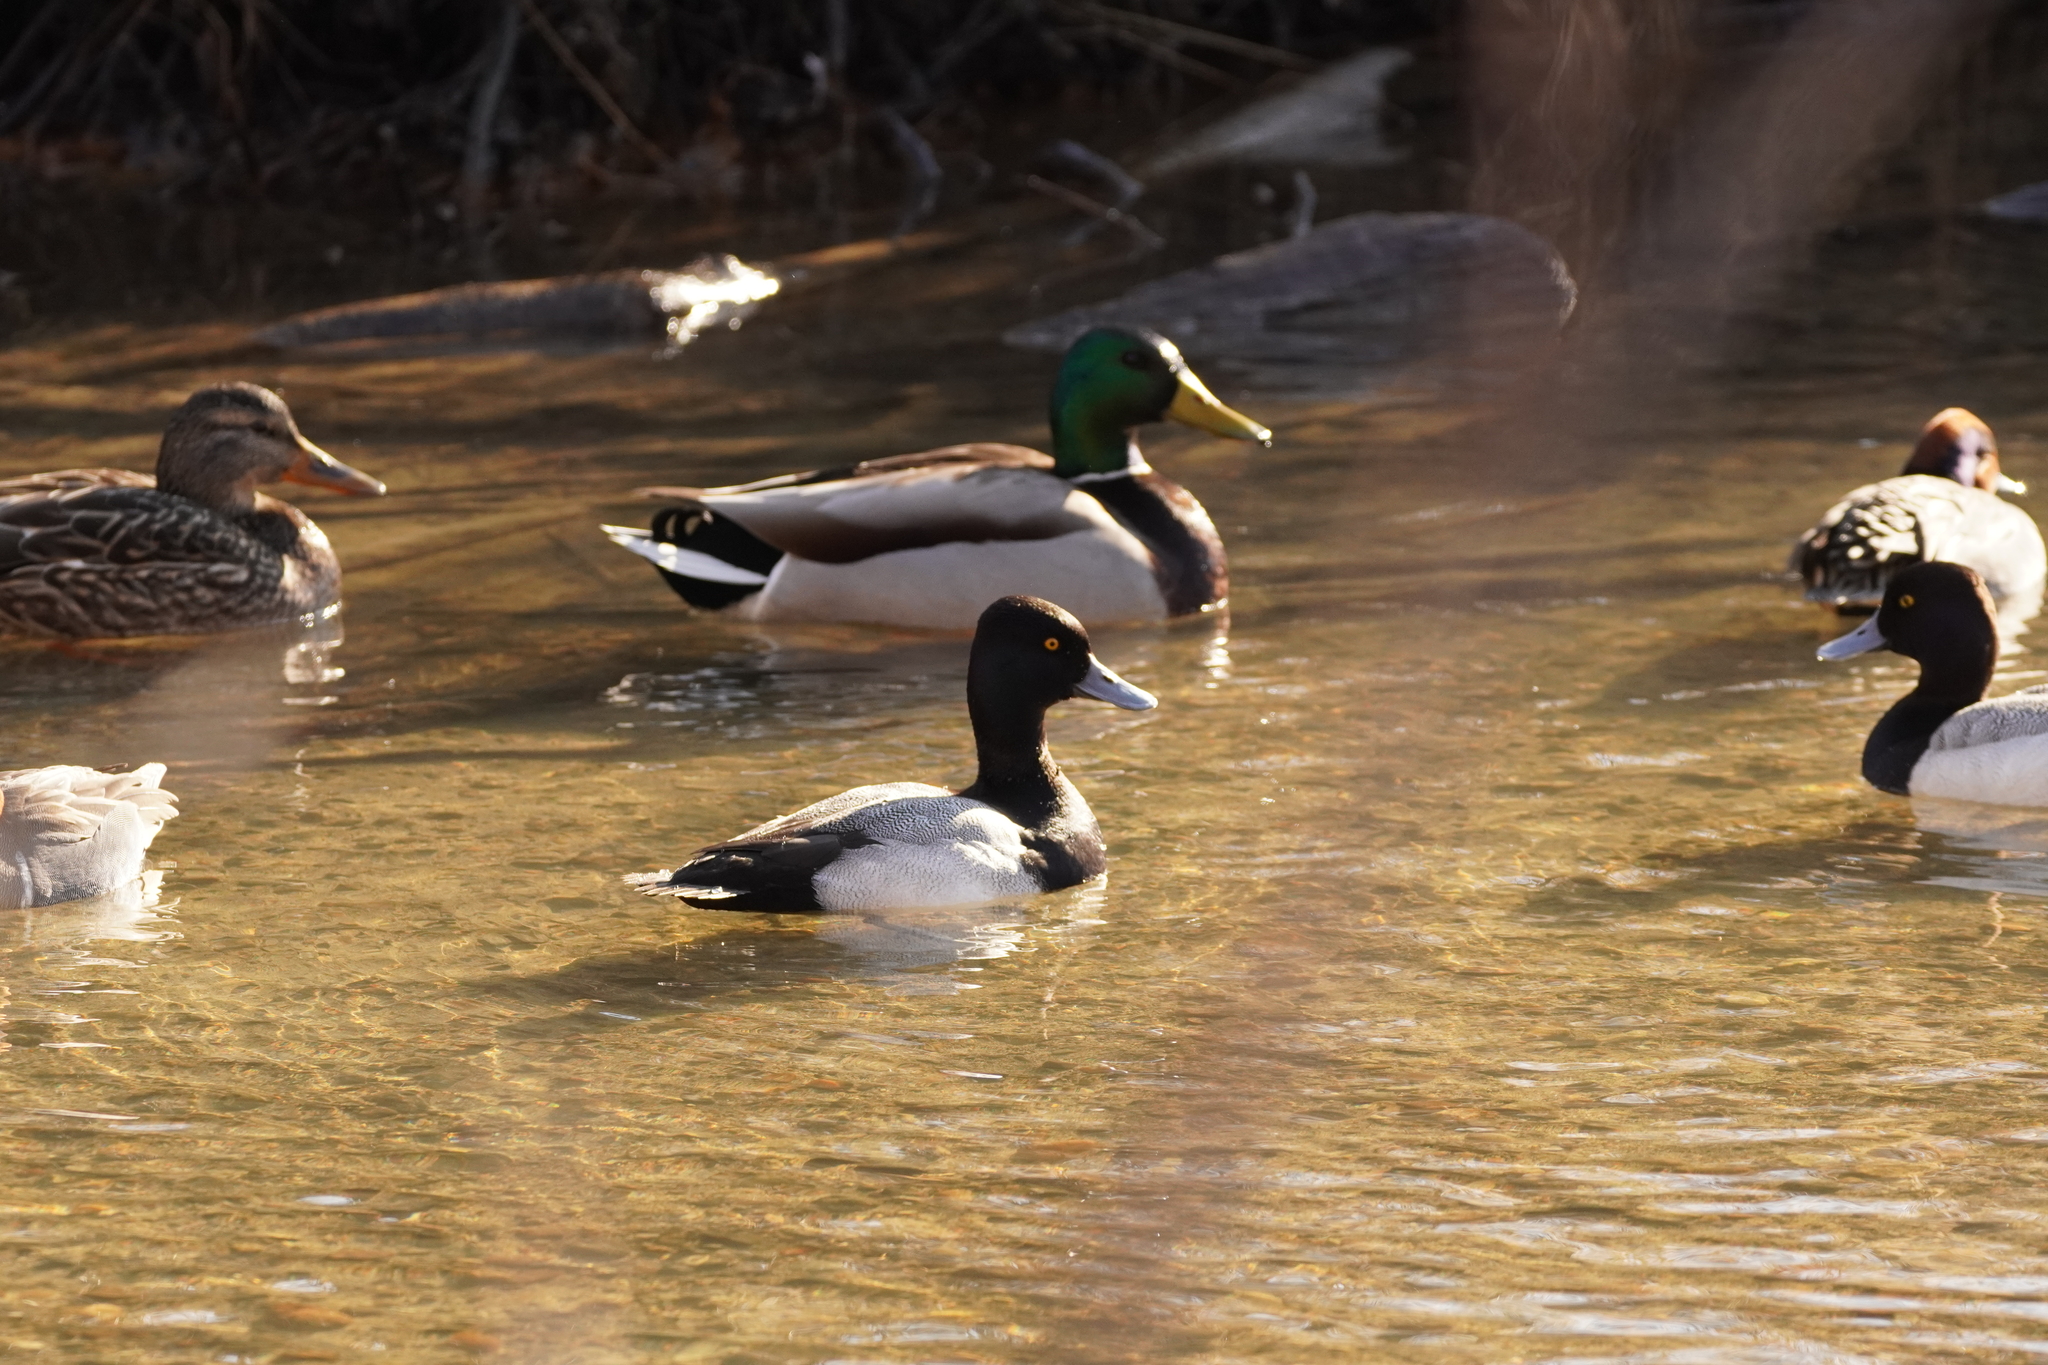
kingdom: Animalia
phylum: Chordata
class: Aves
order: Anseriformes
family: Anatidae
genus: Aythya
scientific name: Aythya affinis
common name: Lesser scaup
